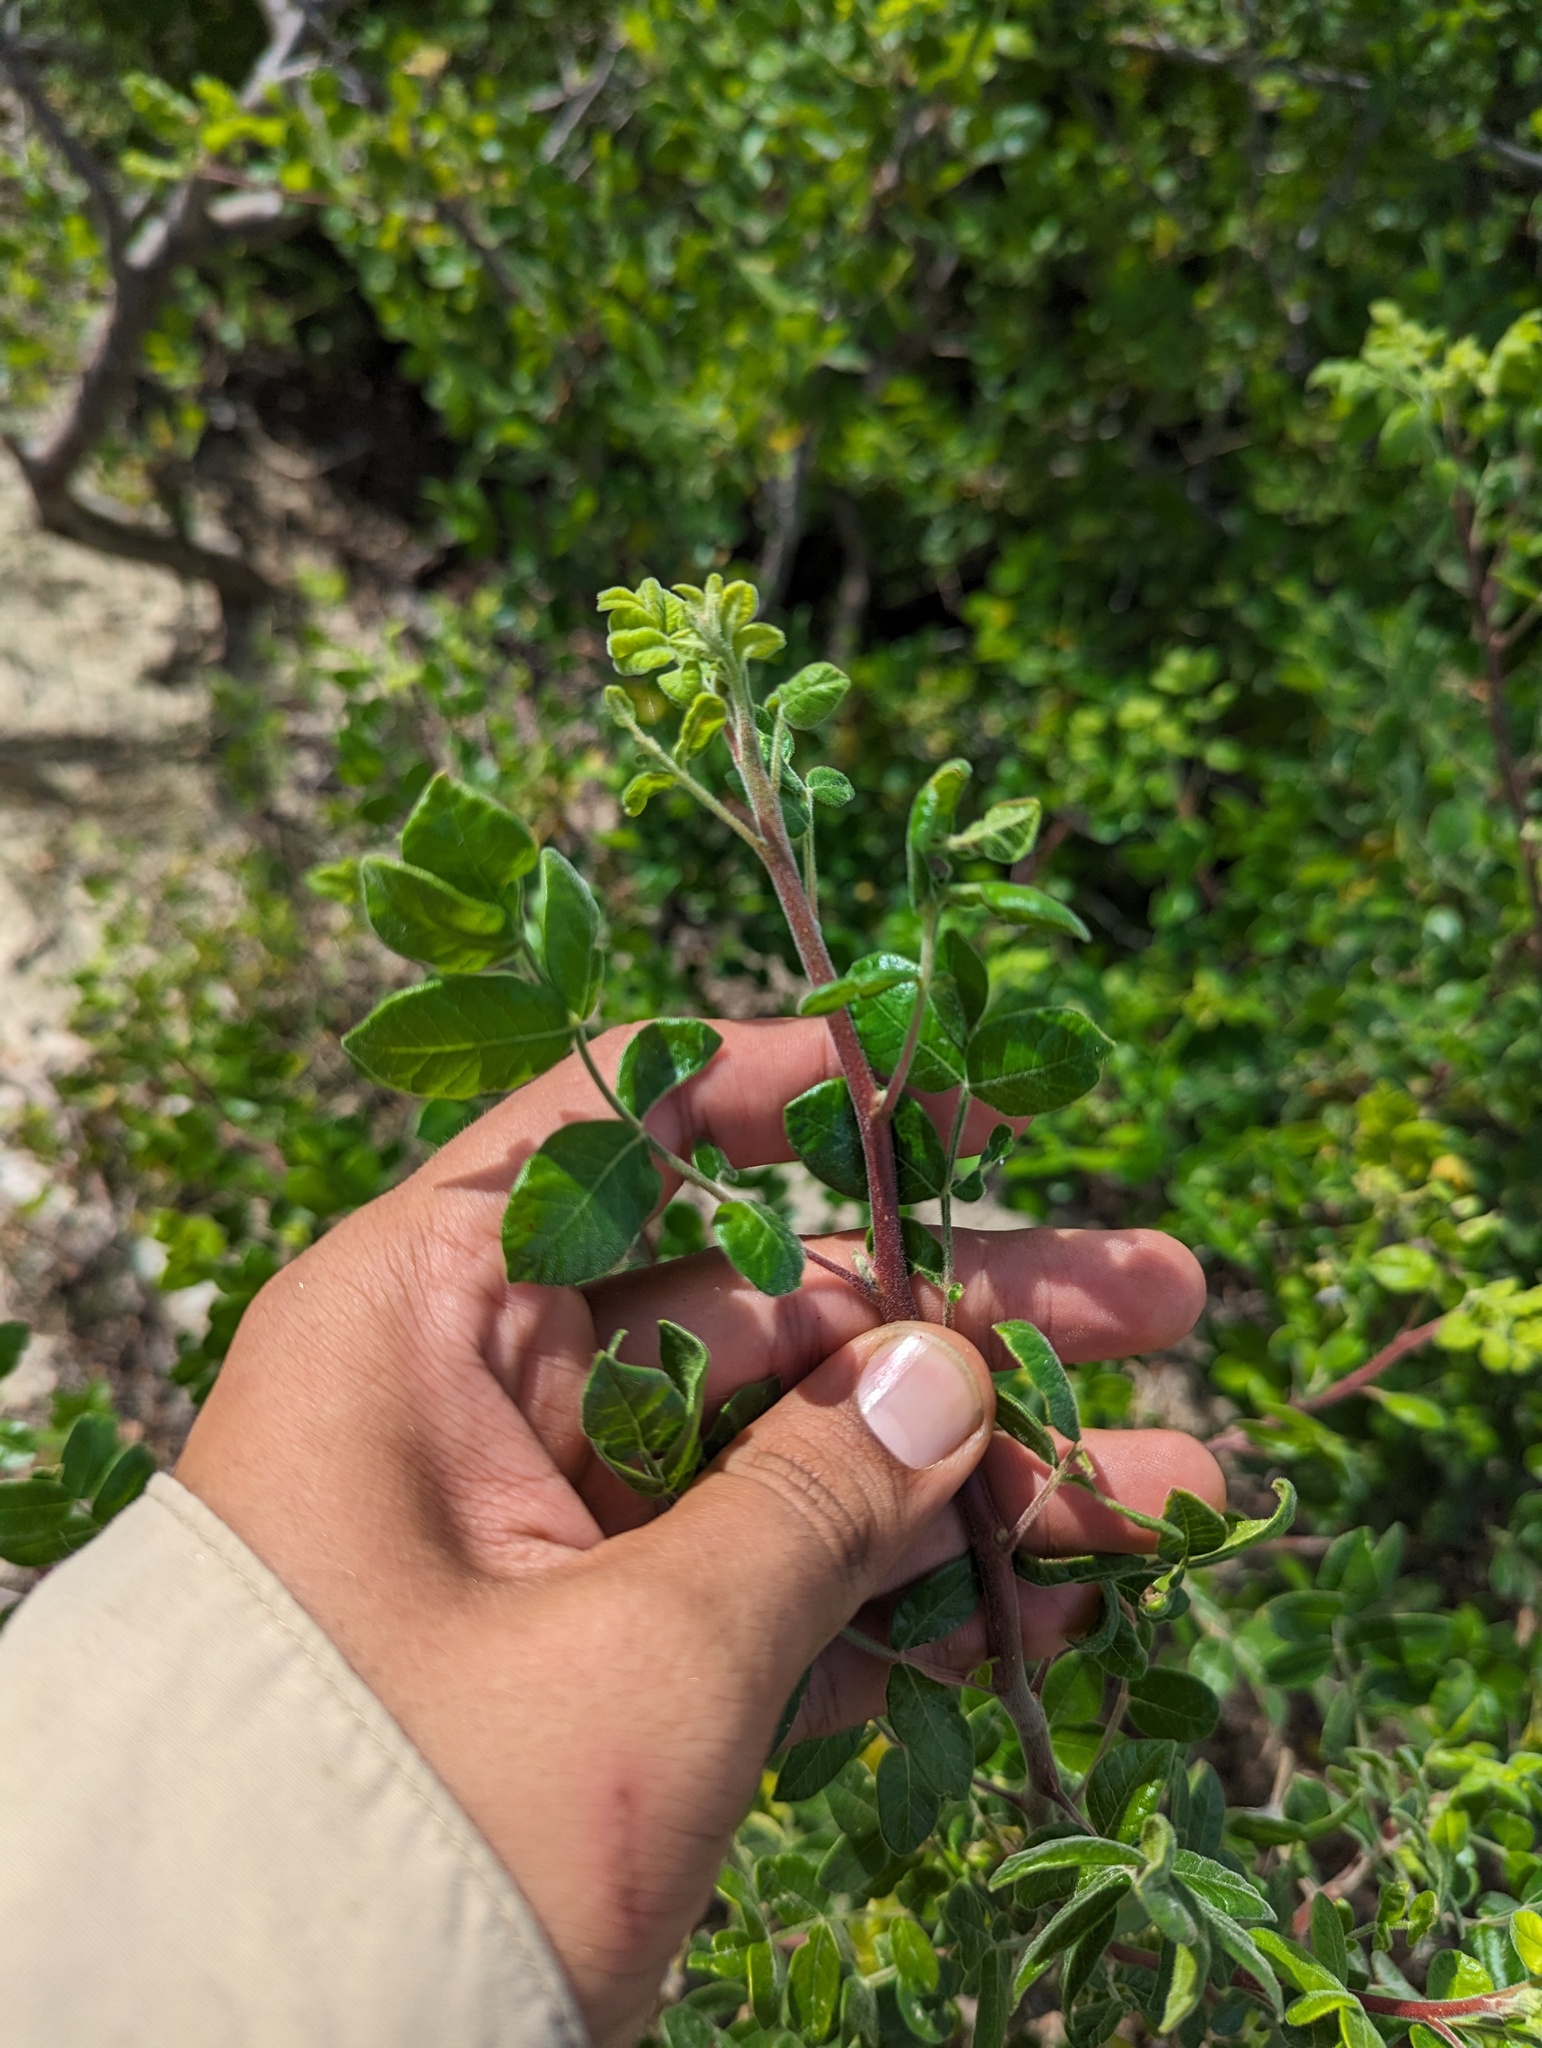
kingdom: Plantae
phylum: Tracheophyta
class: Magnoliopsida
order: Sapindales
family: Anacardiaceae
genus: Cyrtocarpa
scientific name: Cyrtocarpa edulis
